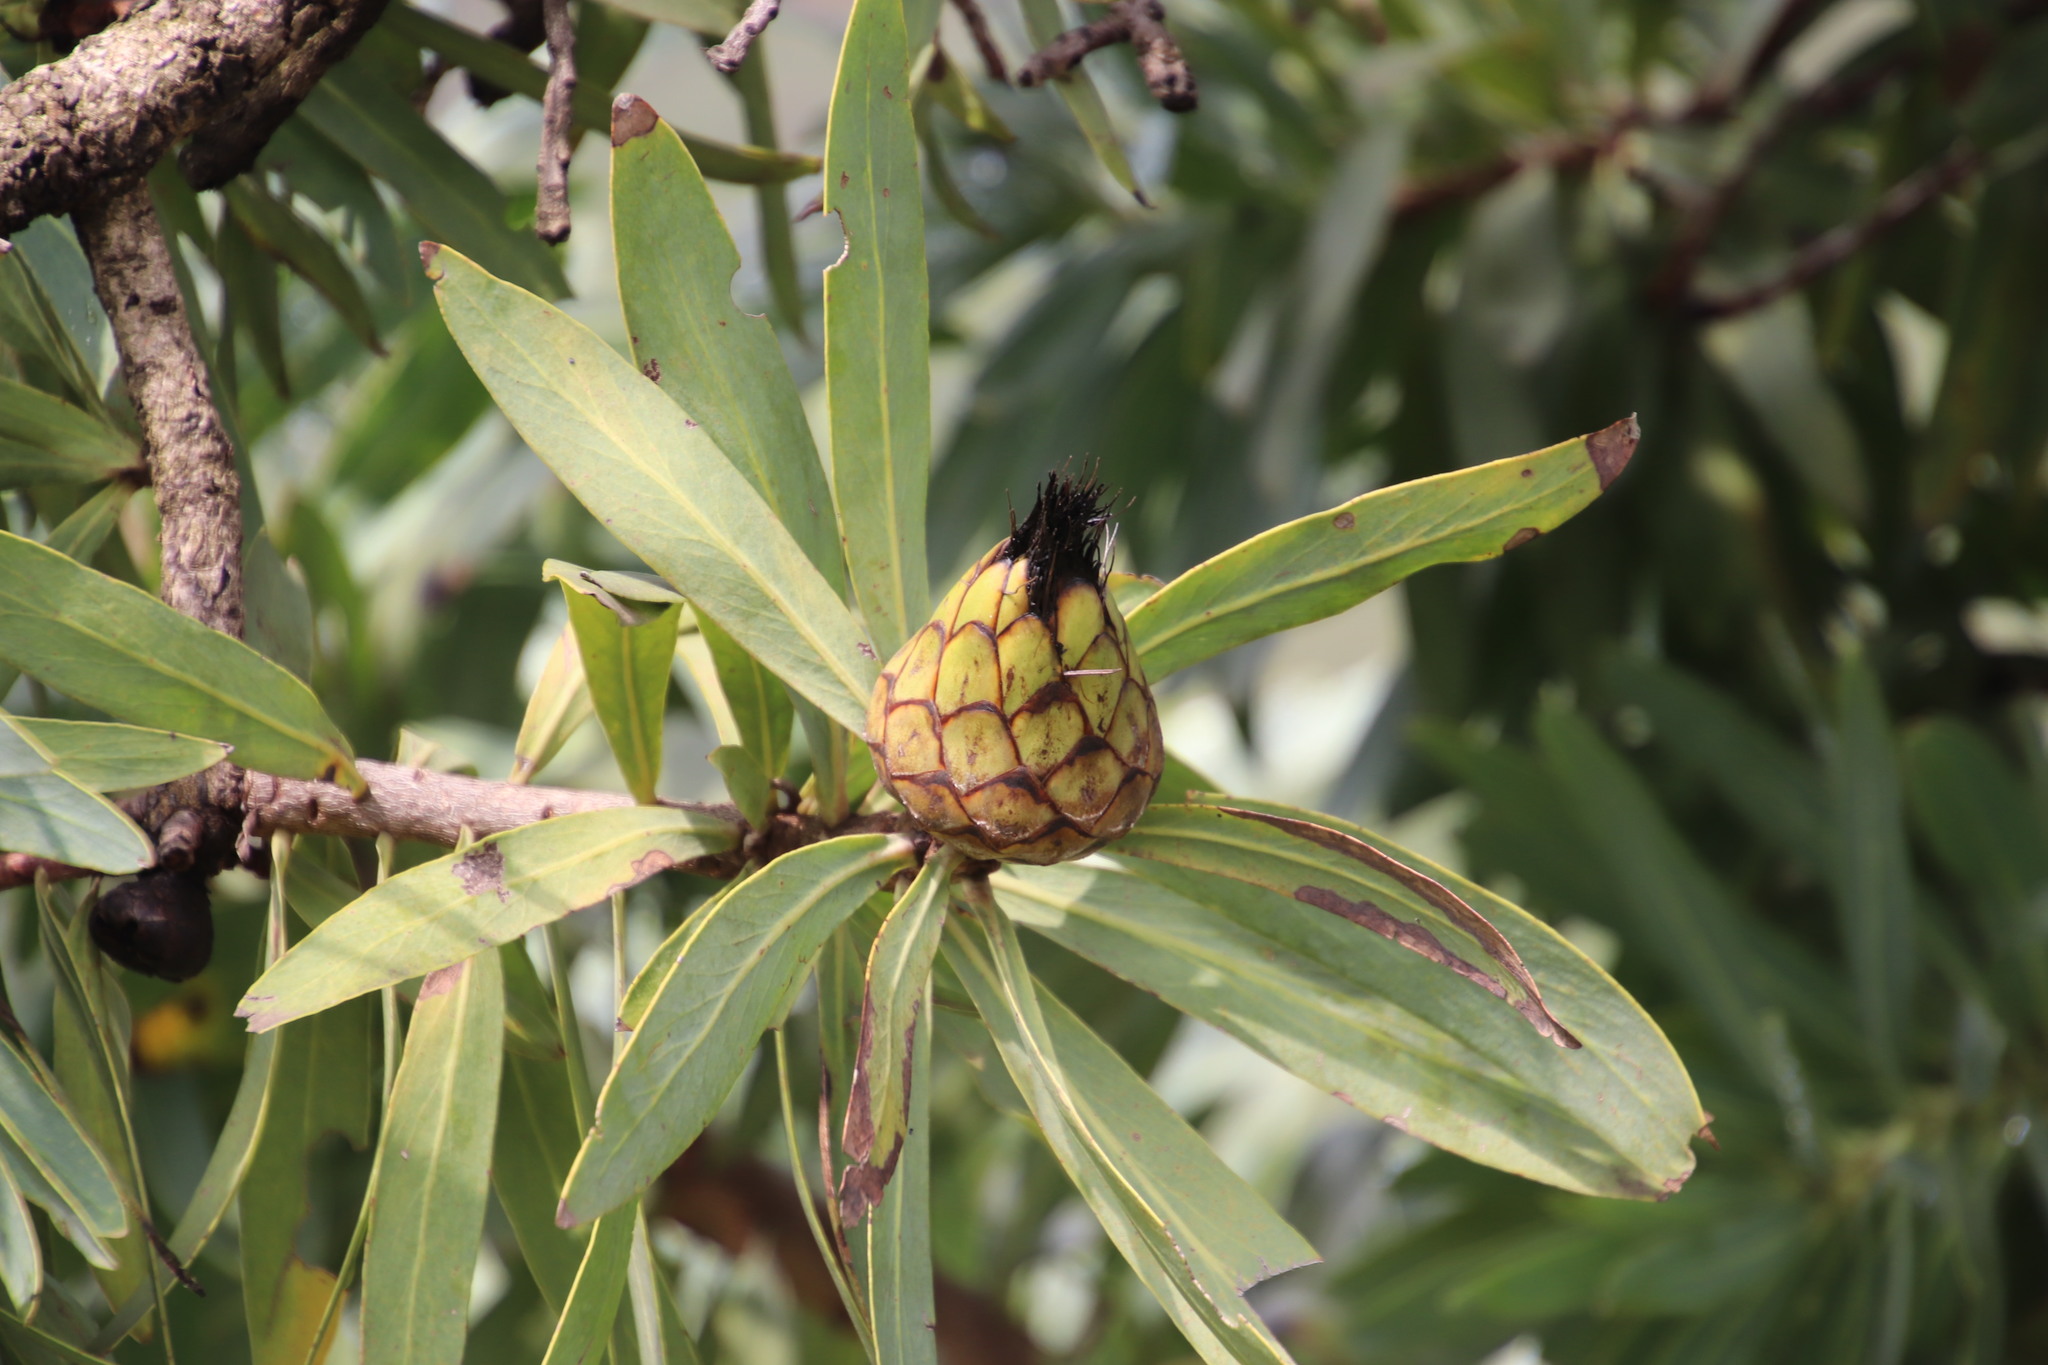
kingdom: Plantae
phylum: Tracheophyta
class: Magnoliopsida
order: Proteales
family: Proteaceae
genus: Protea
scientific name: Protea caffra
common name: Common sugarbush
